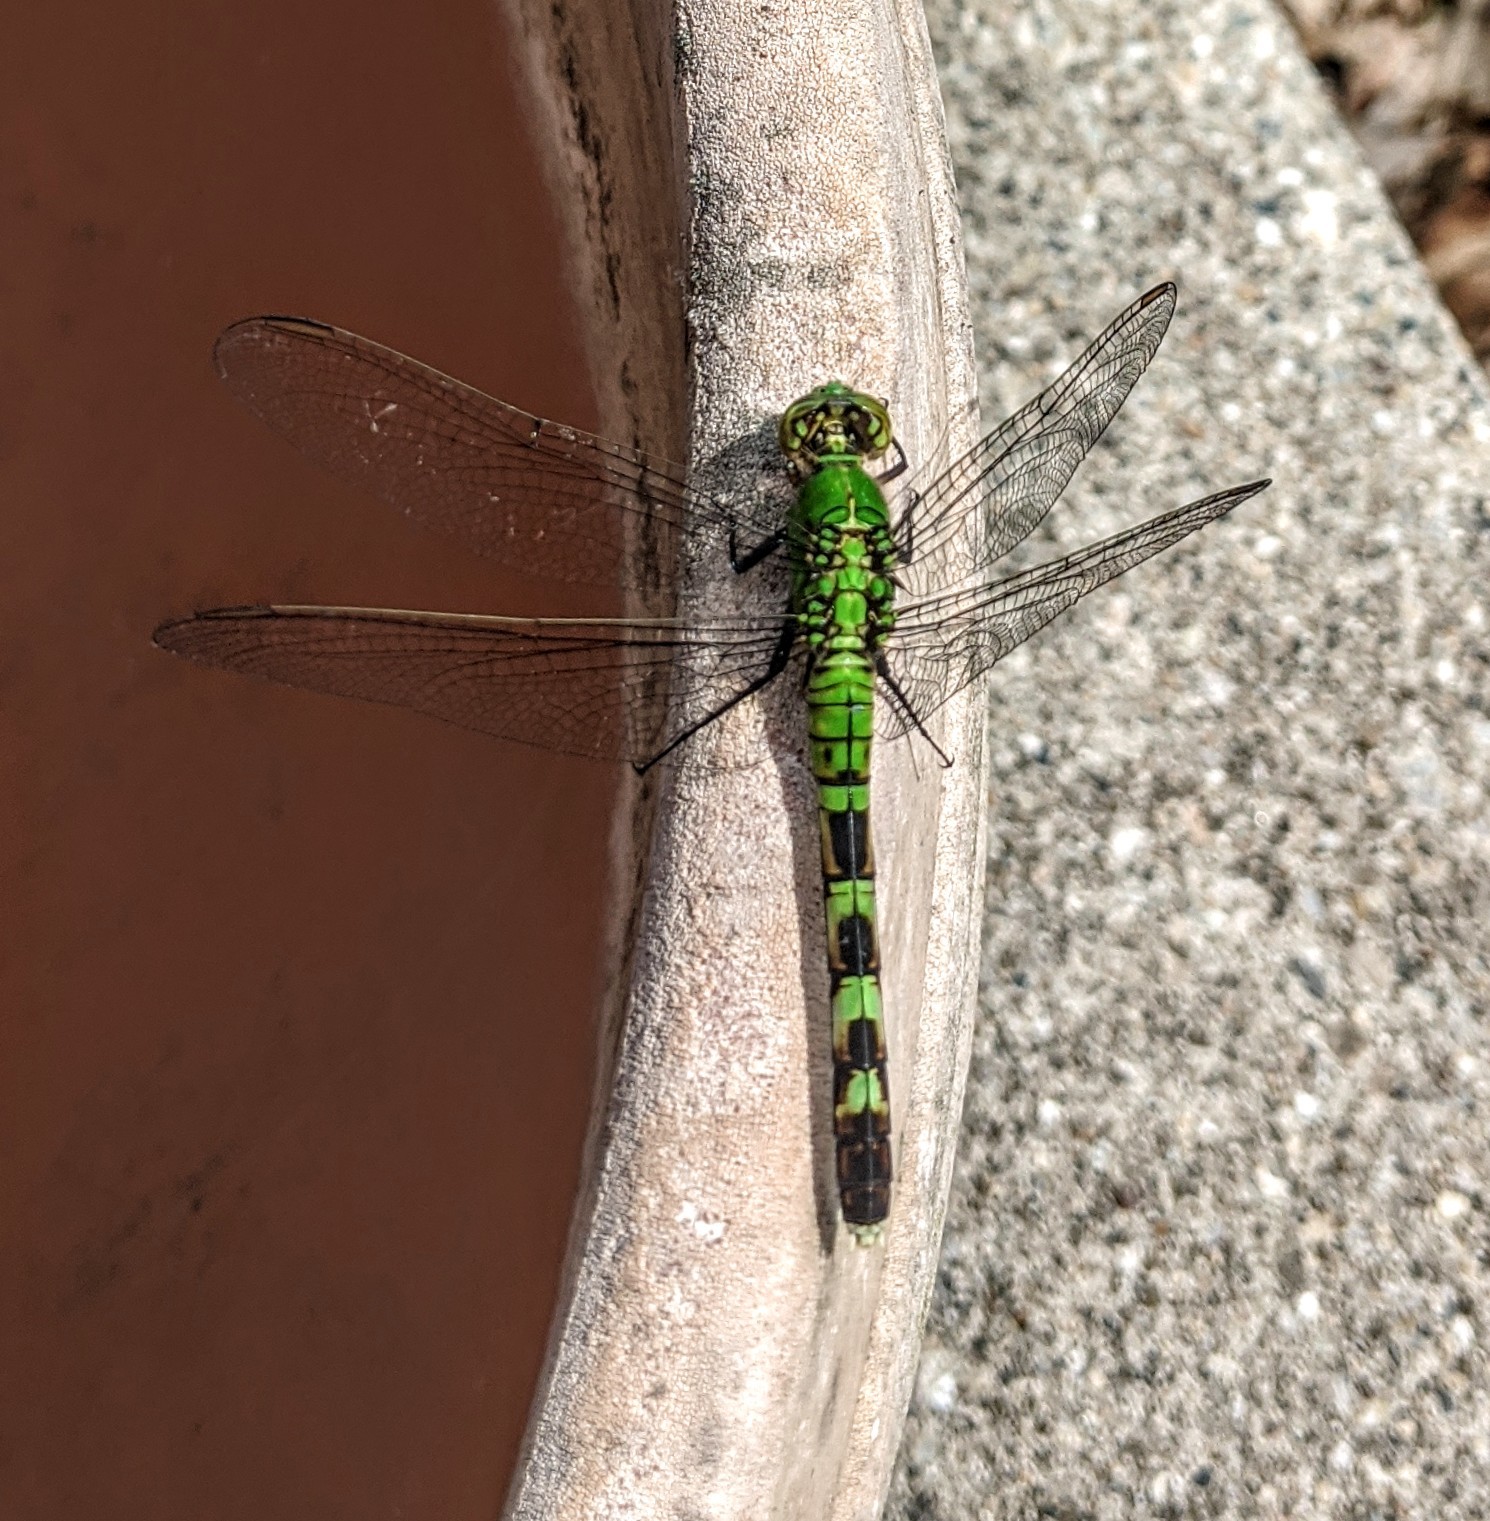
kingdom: Animalia
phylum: Arthropoda
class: Insecta
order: Odonata
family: Libellulidae
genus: Erythemis
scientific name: Erythemis simplicicollis
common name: Eastern pondhawk
